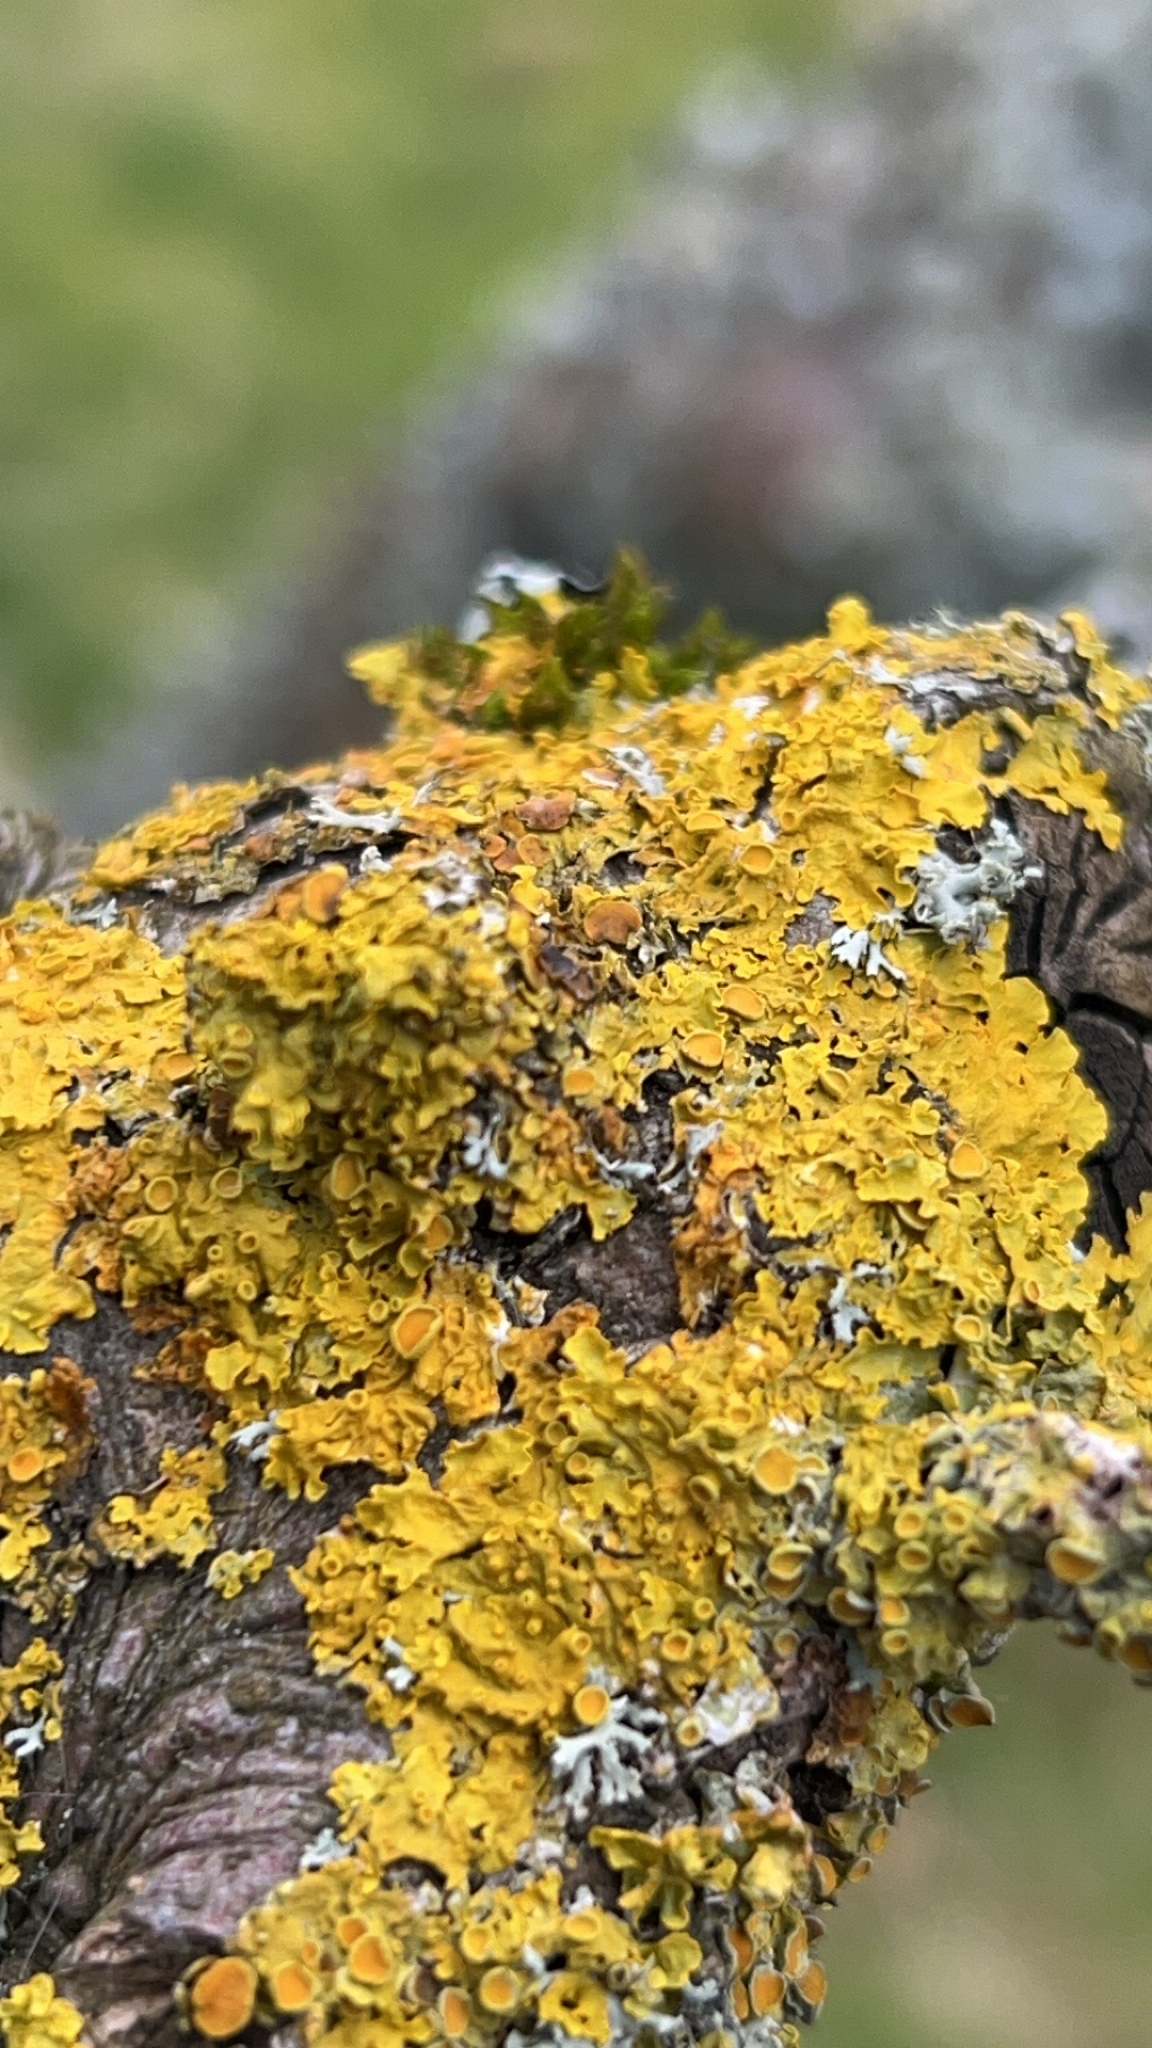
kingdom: Fungi
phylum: Ascomycota
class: Lecanoromycetes
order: Teloschistales
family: Teloschistaceae
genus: Xanthoria
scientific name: Xanthoria parietina
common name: Common orange lichen
